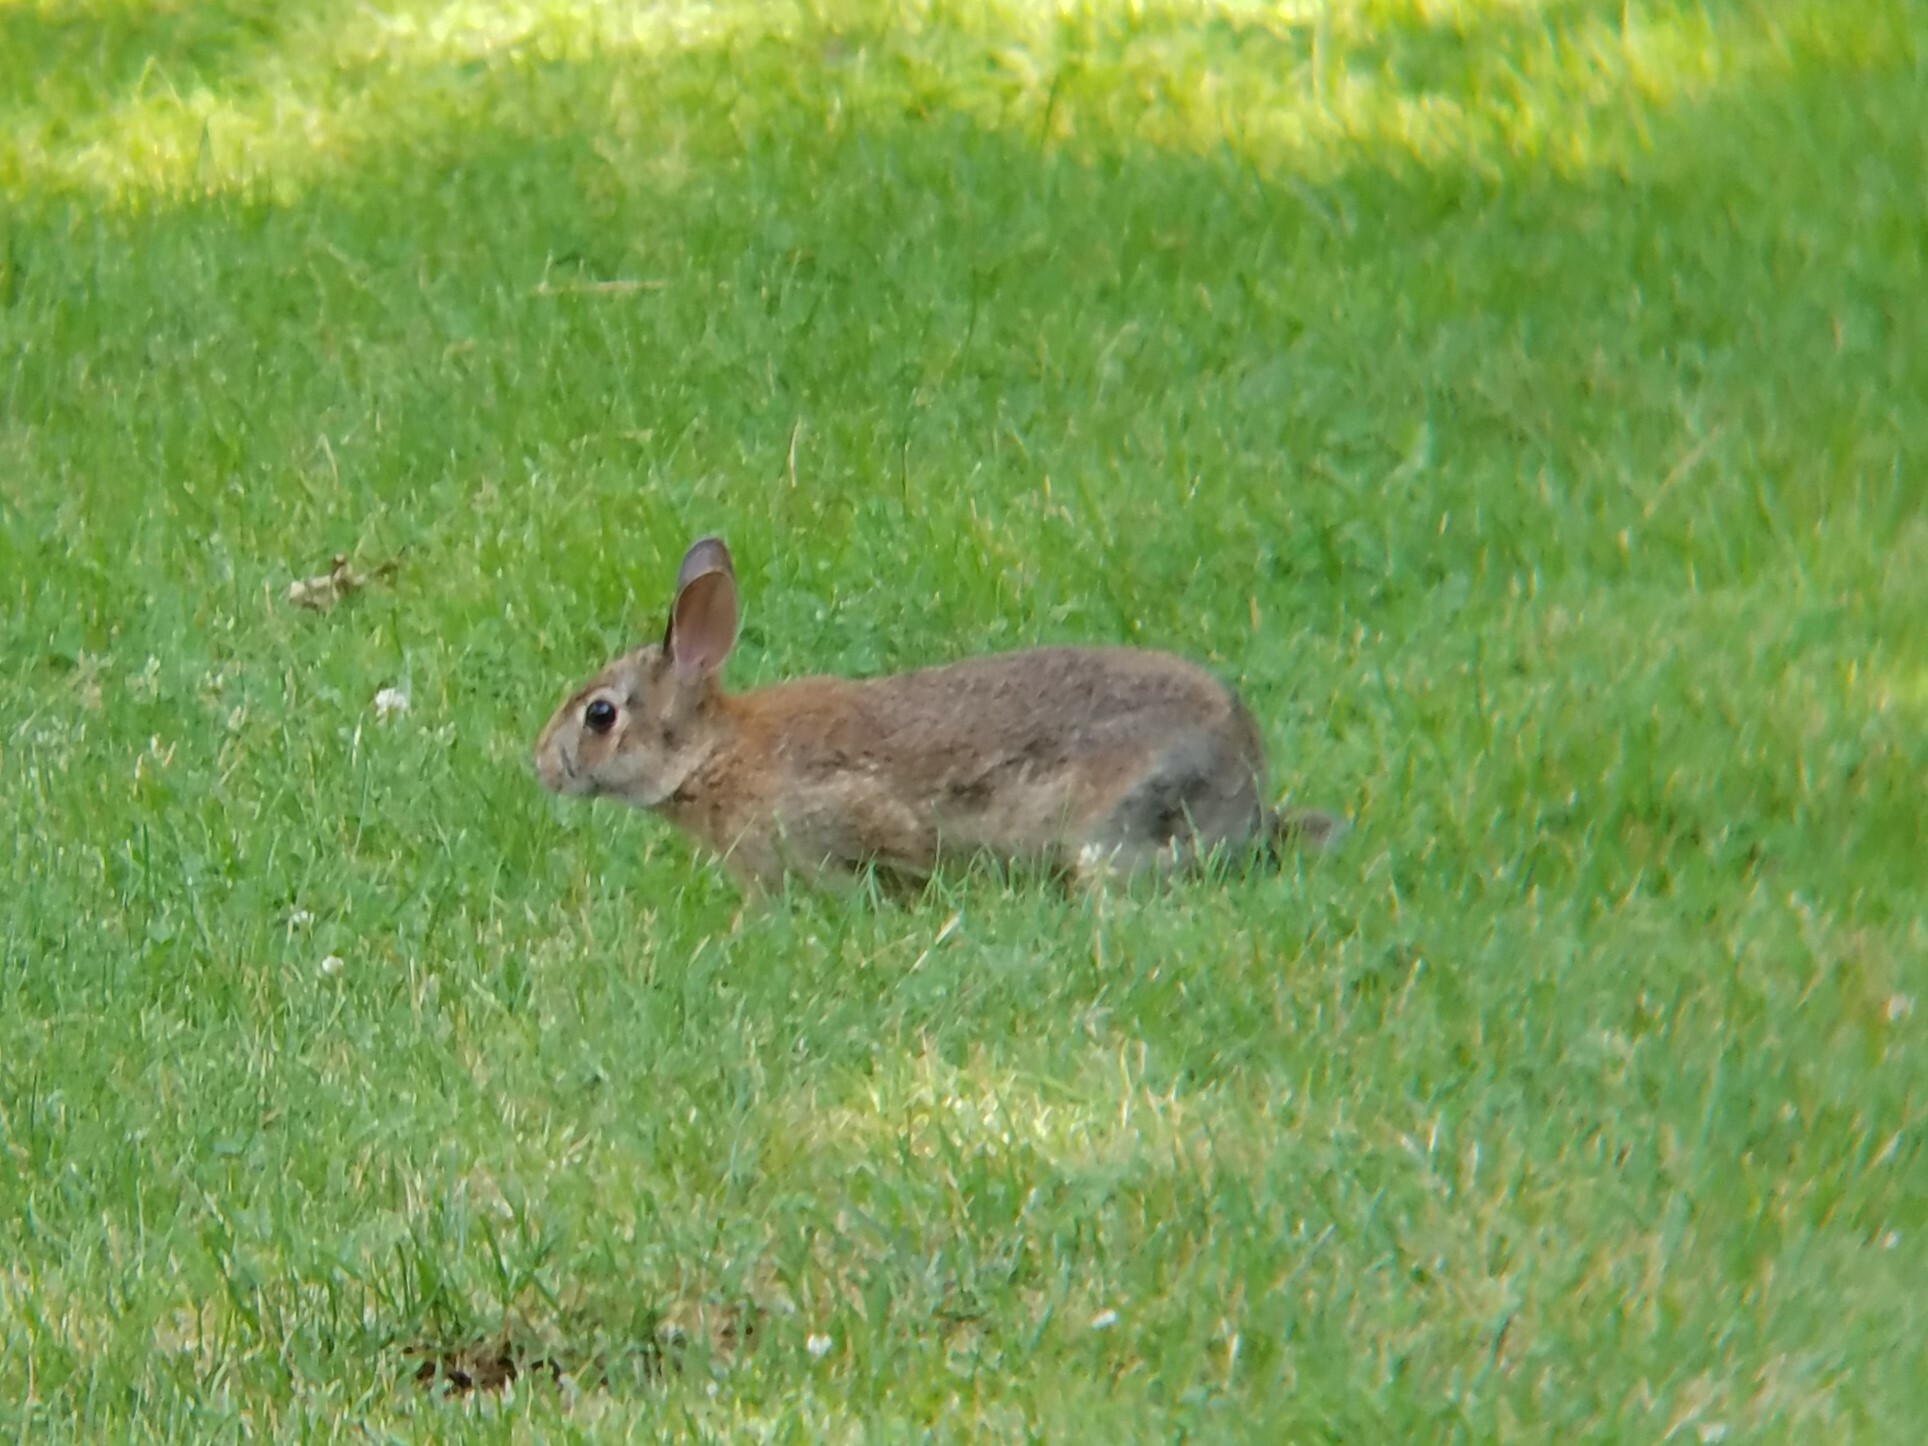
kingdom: Animalia
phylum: Chordata
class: Mammalia
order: Lagomorpha
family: Leporidae
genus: Sylvilagus
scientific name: Sylvilagus floridanus
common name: Eastern cottontail
